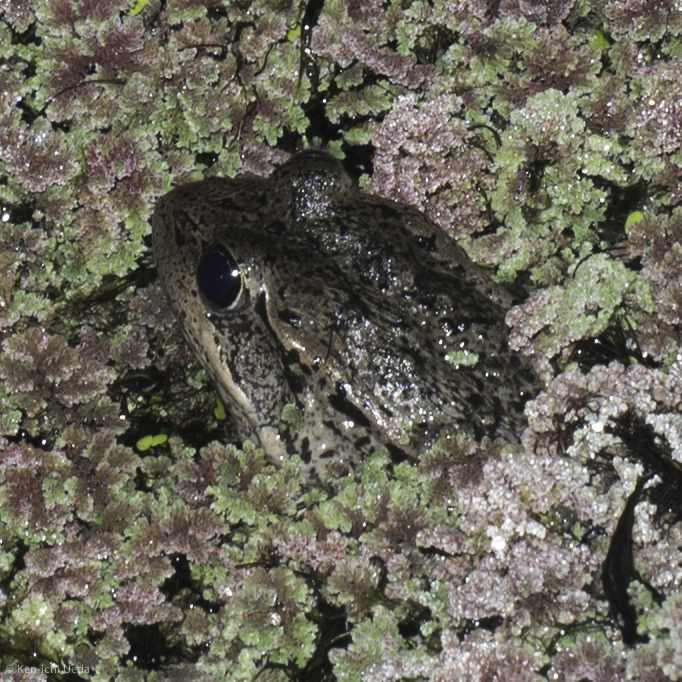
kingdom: Animalia
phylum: Chordata
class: Amphibia
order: Anura
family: Ranidae
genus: Rana
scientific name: Rana draytonii
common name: California red-legged frog
